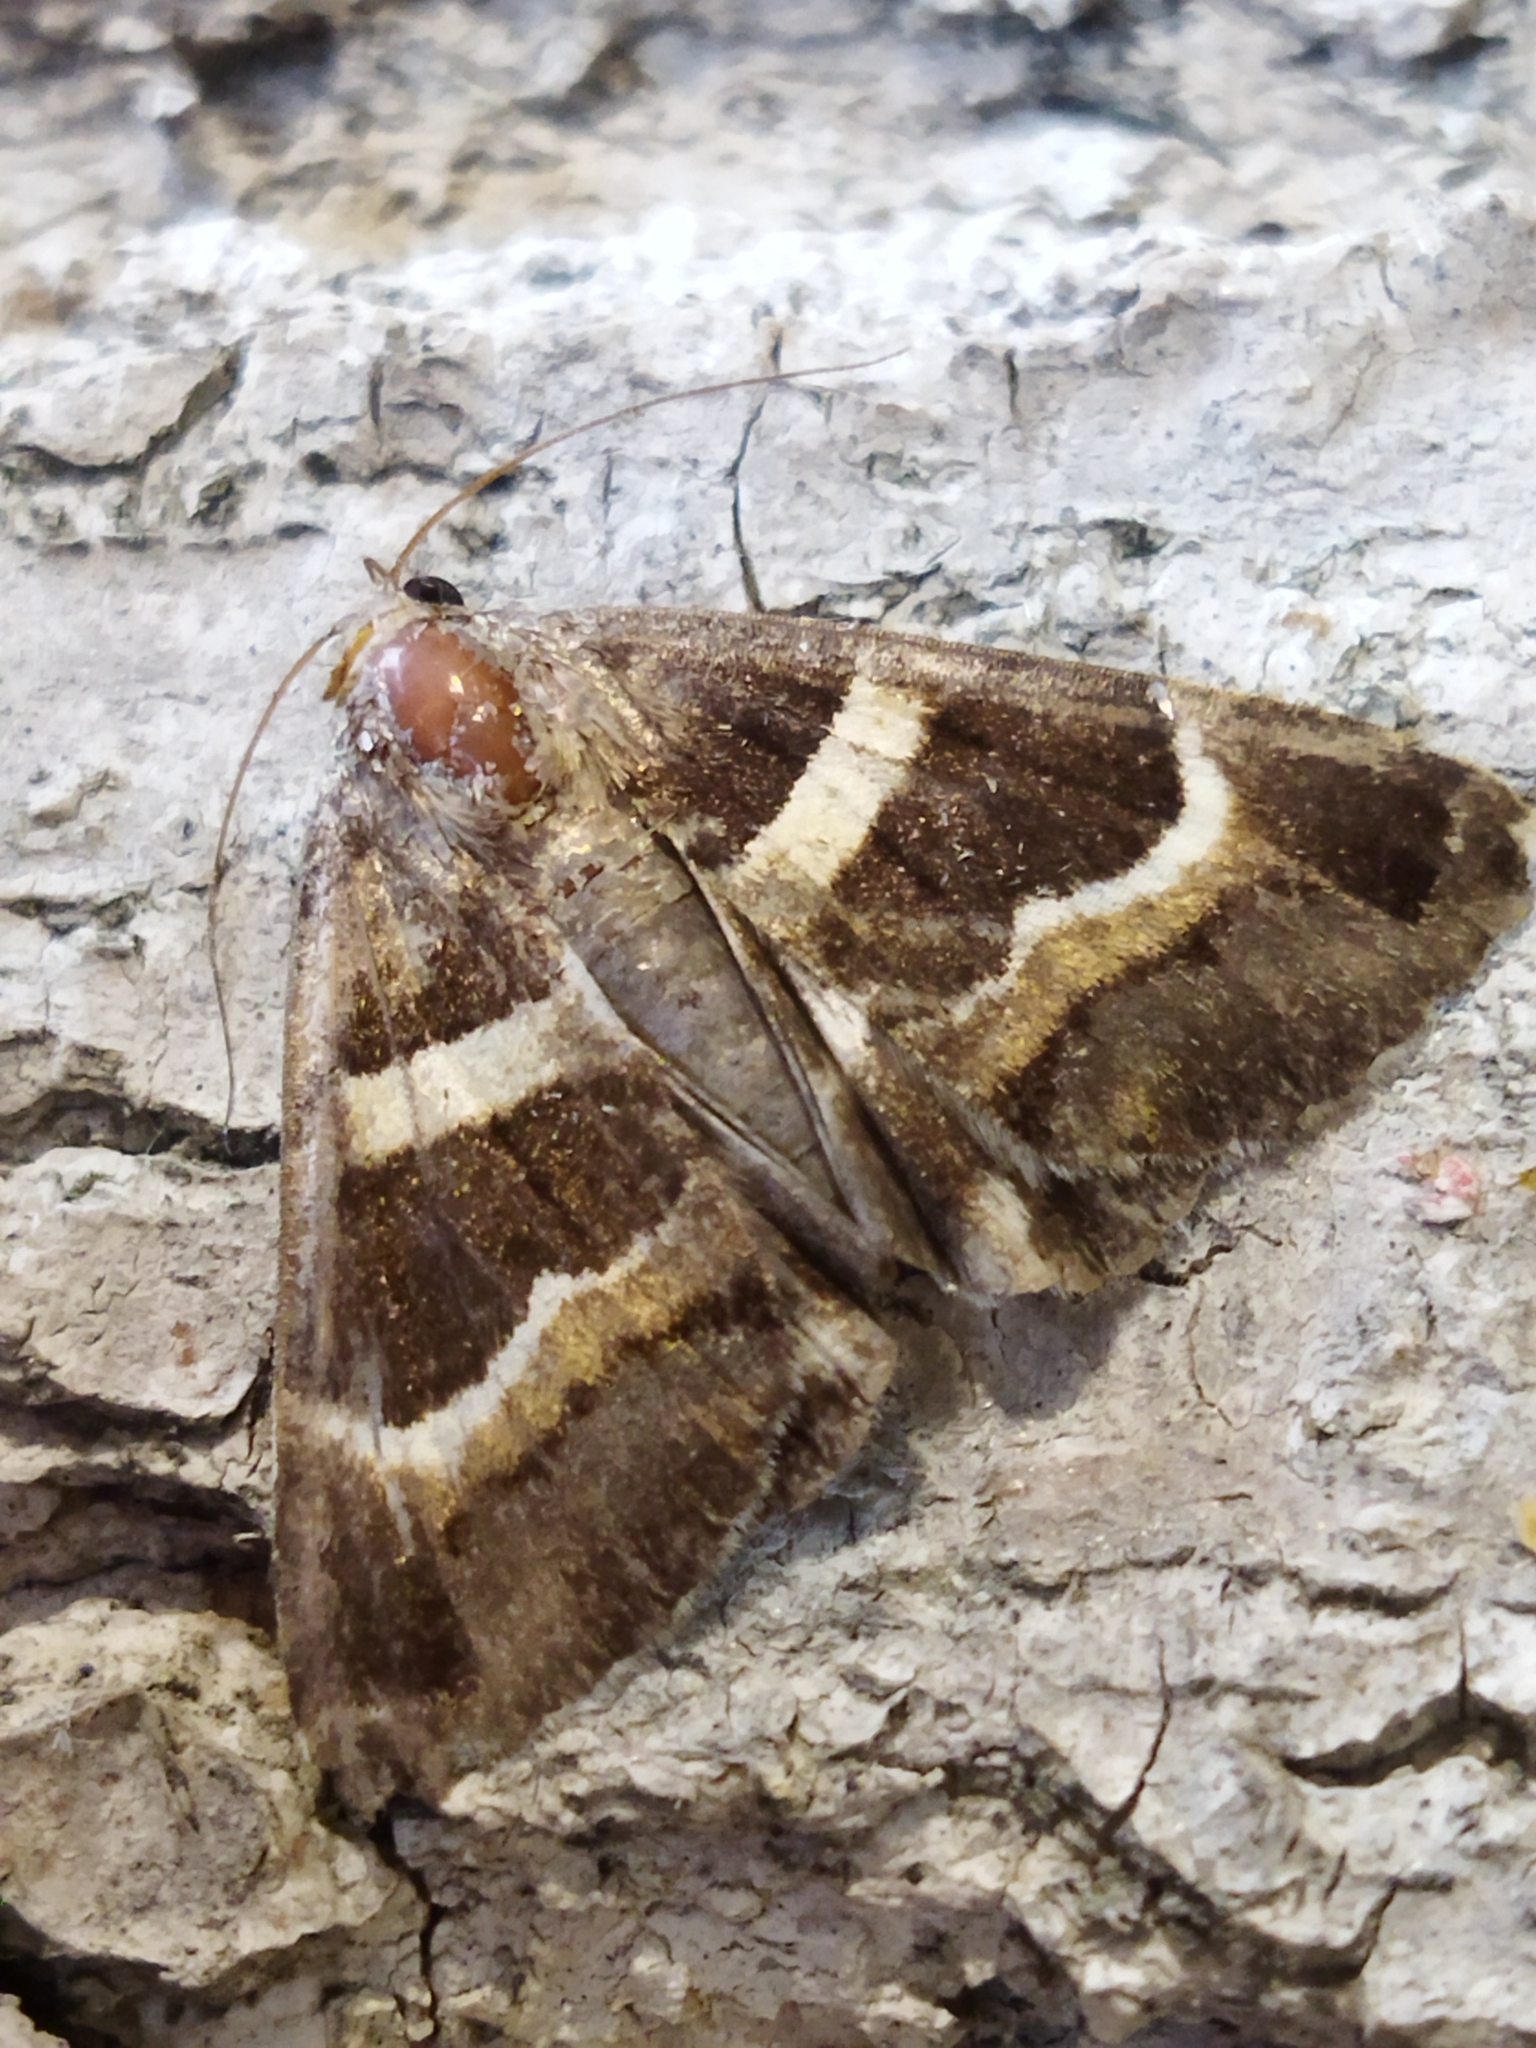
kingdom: Animalia
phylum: Arthropoda
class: Insecta
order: Lepidoptera
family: Erebidae
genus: Grammodes
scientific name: Grammodes stolida
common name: Geometrician
